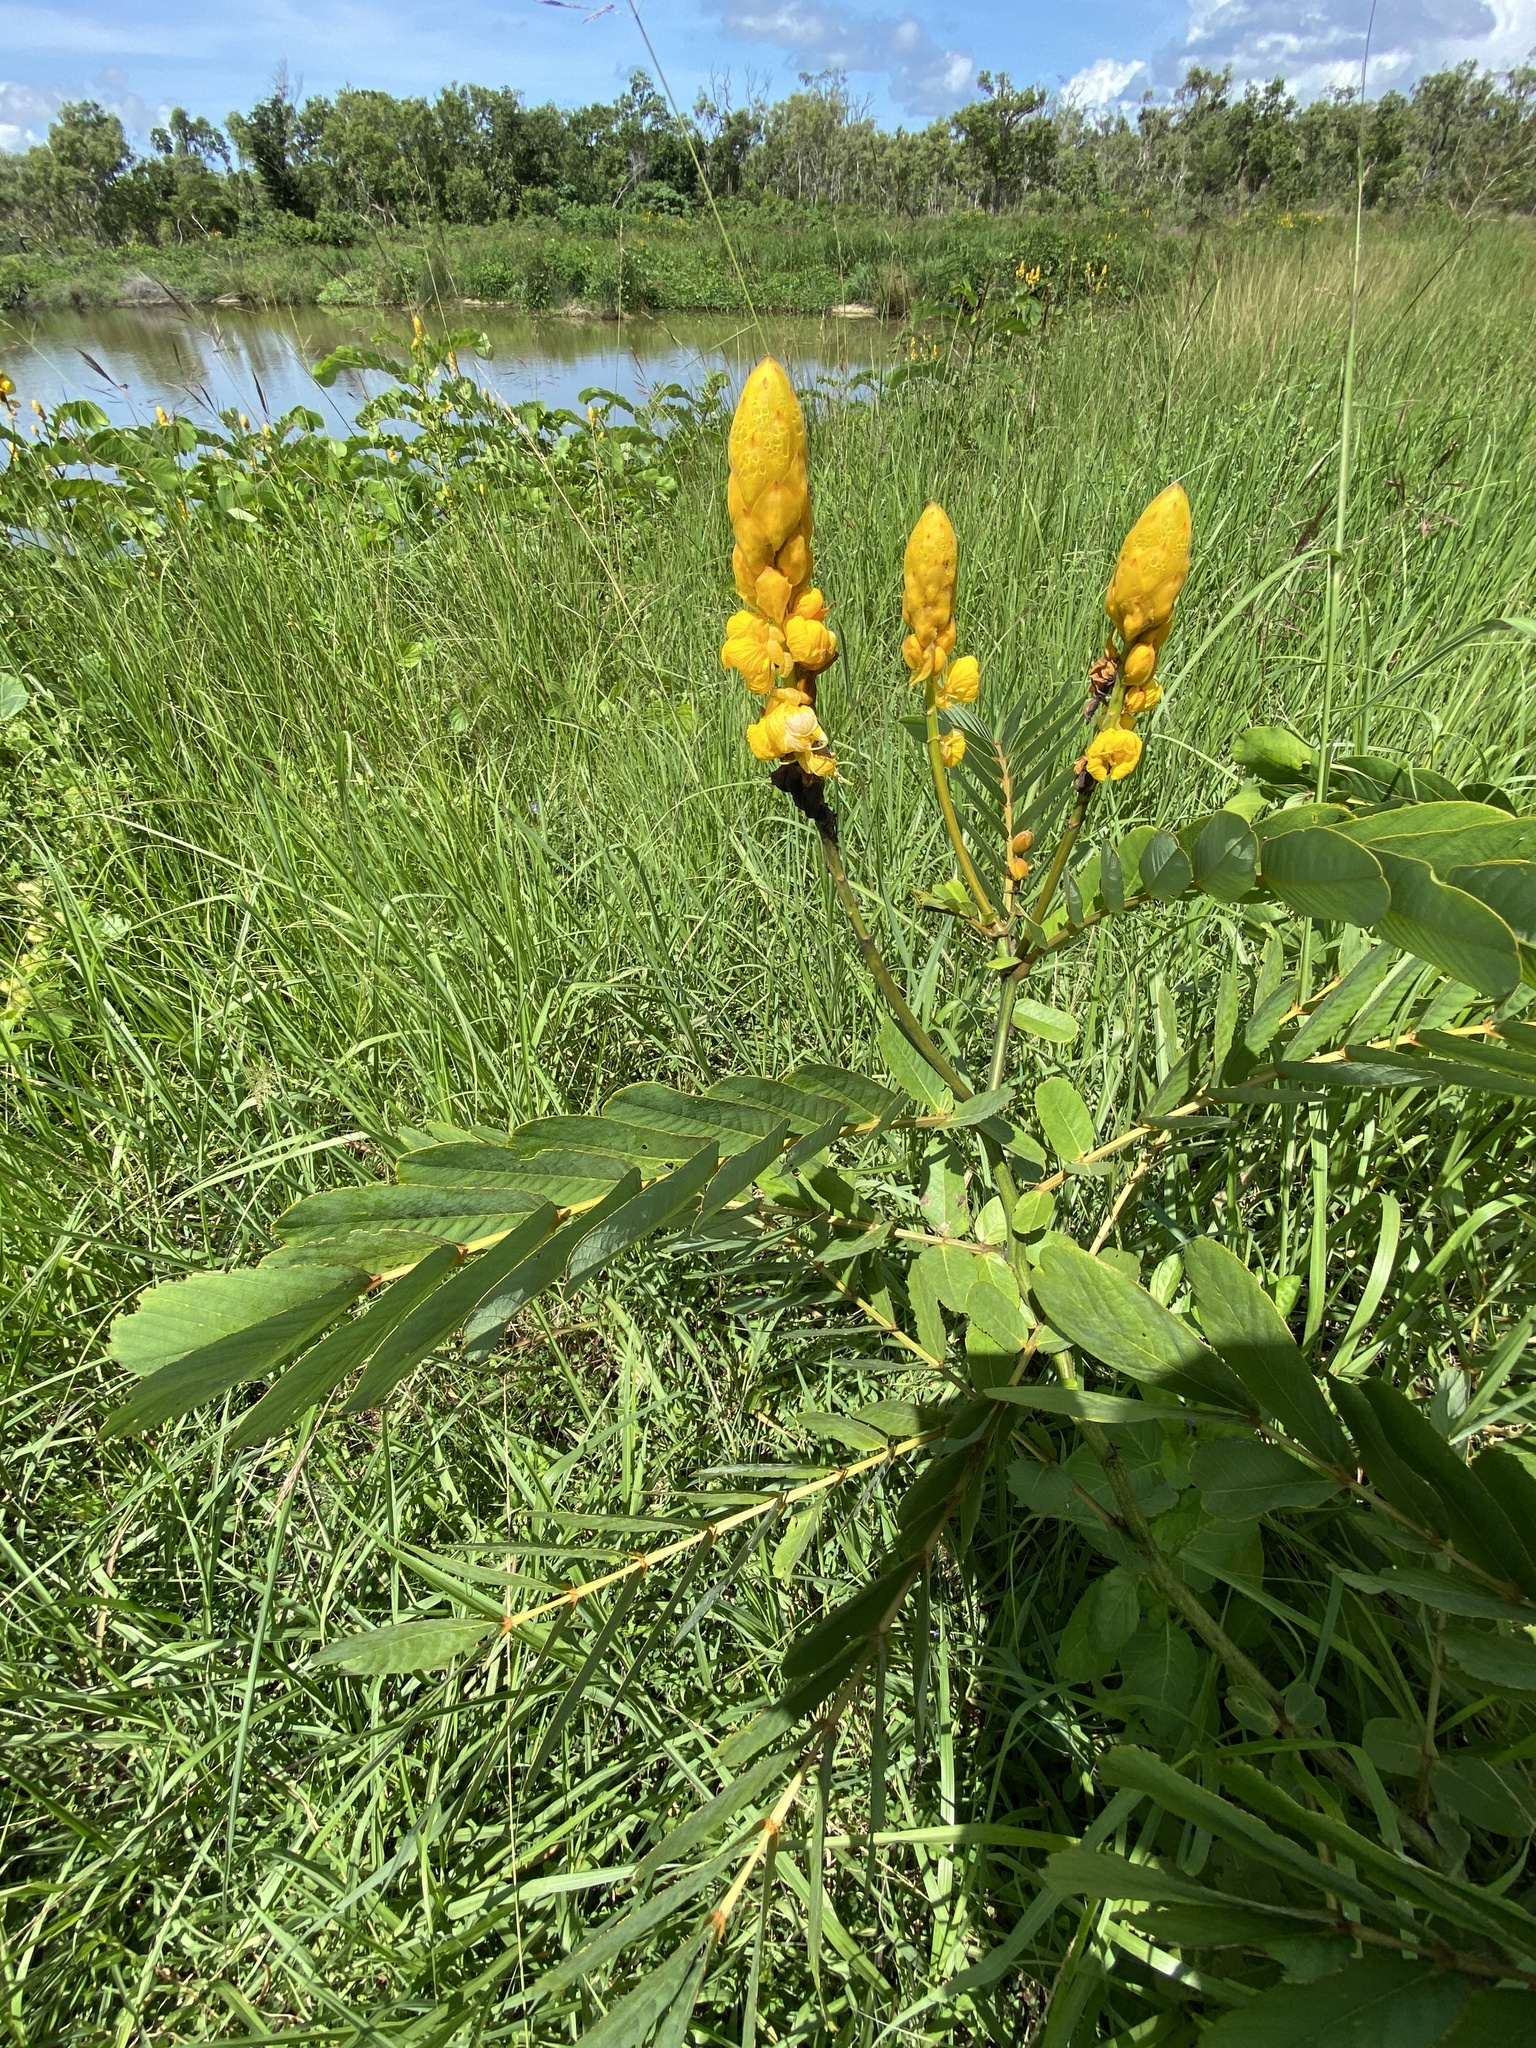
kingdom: Plantae
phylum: Tracheophyta
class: Magnoliopsida
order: Fabales
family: Fabaceae
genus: Senna
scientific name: Senna alata
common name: Emperor's candlesticks
